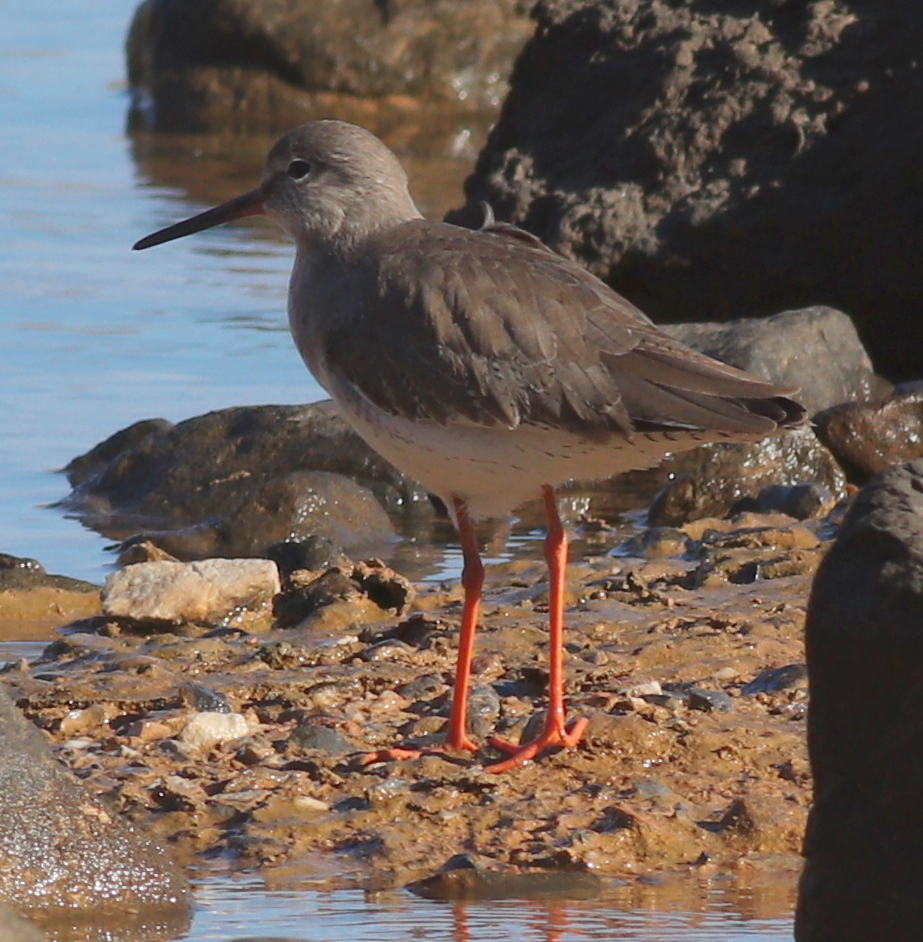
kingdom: Animalia
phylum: Chordata
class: Aves
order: Charadriiformes
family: Scolopacidae
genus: Tringa
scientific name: Tringa totanus
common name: Common redshank
